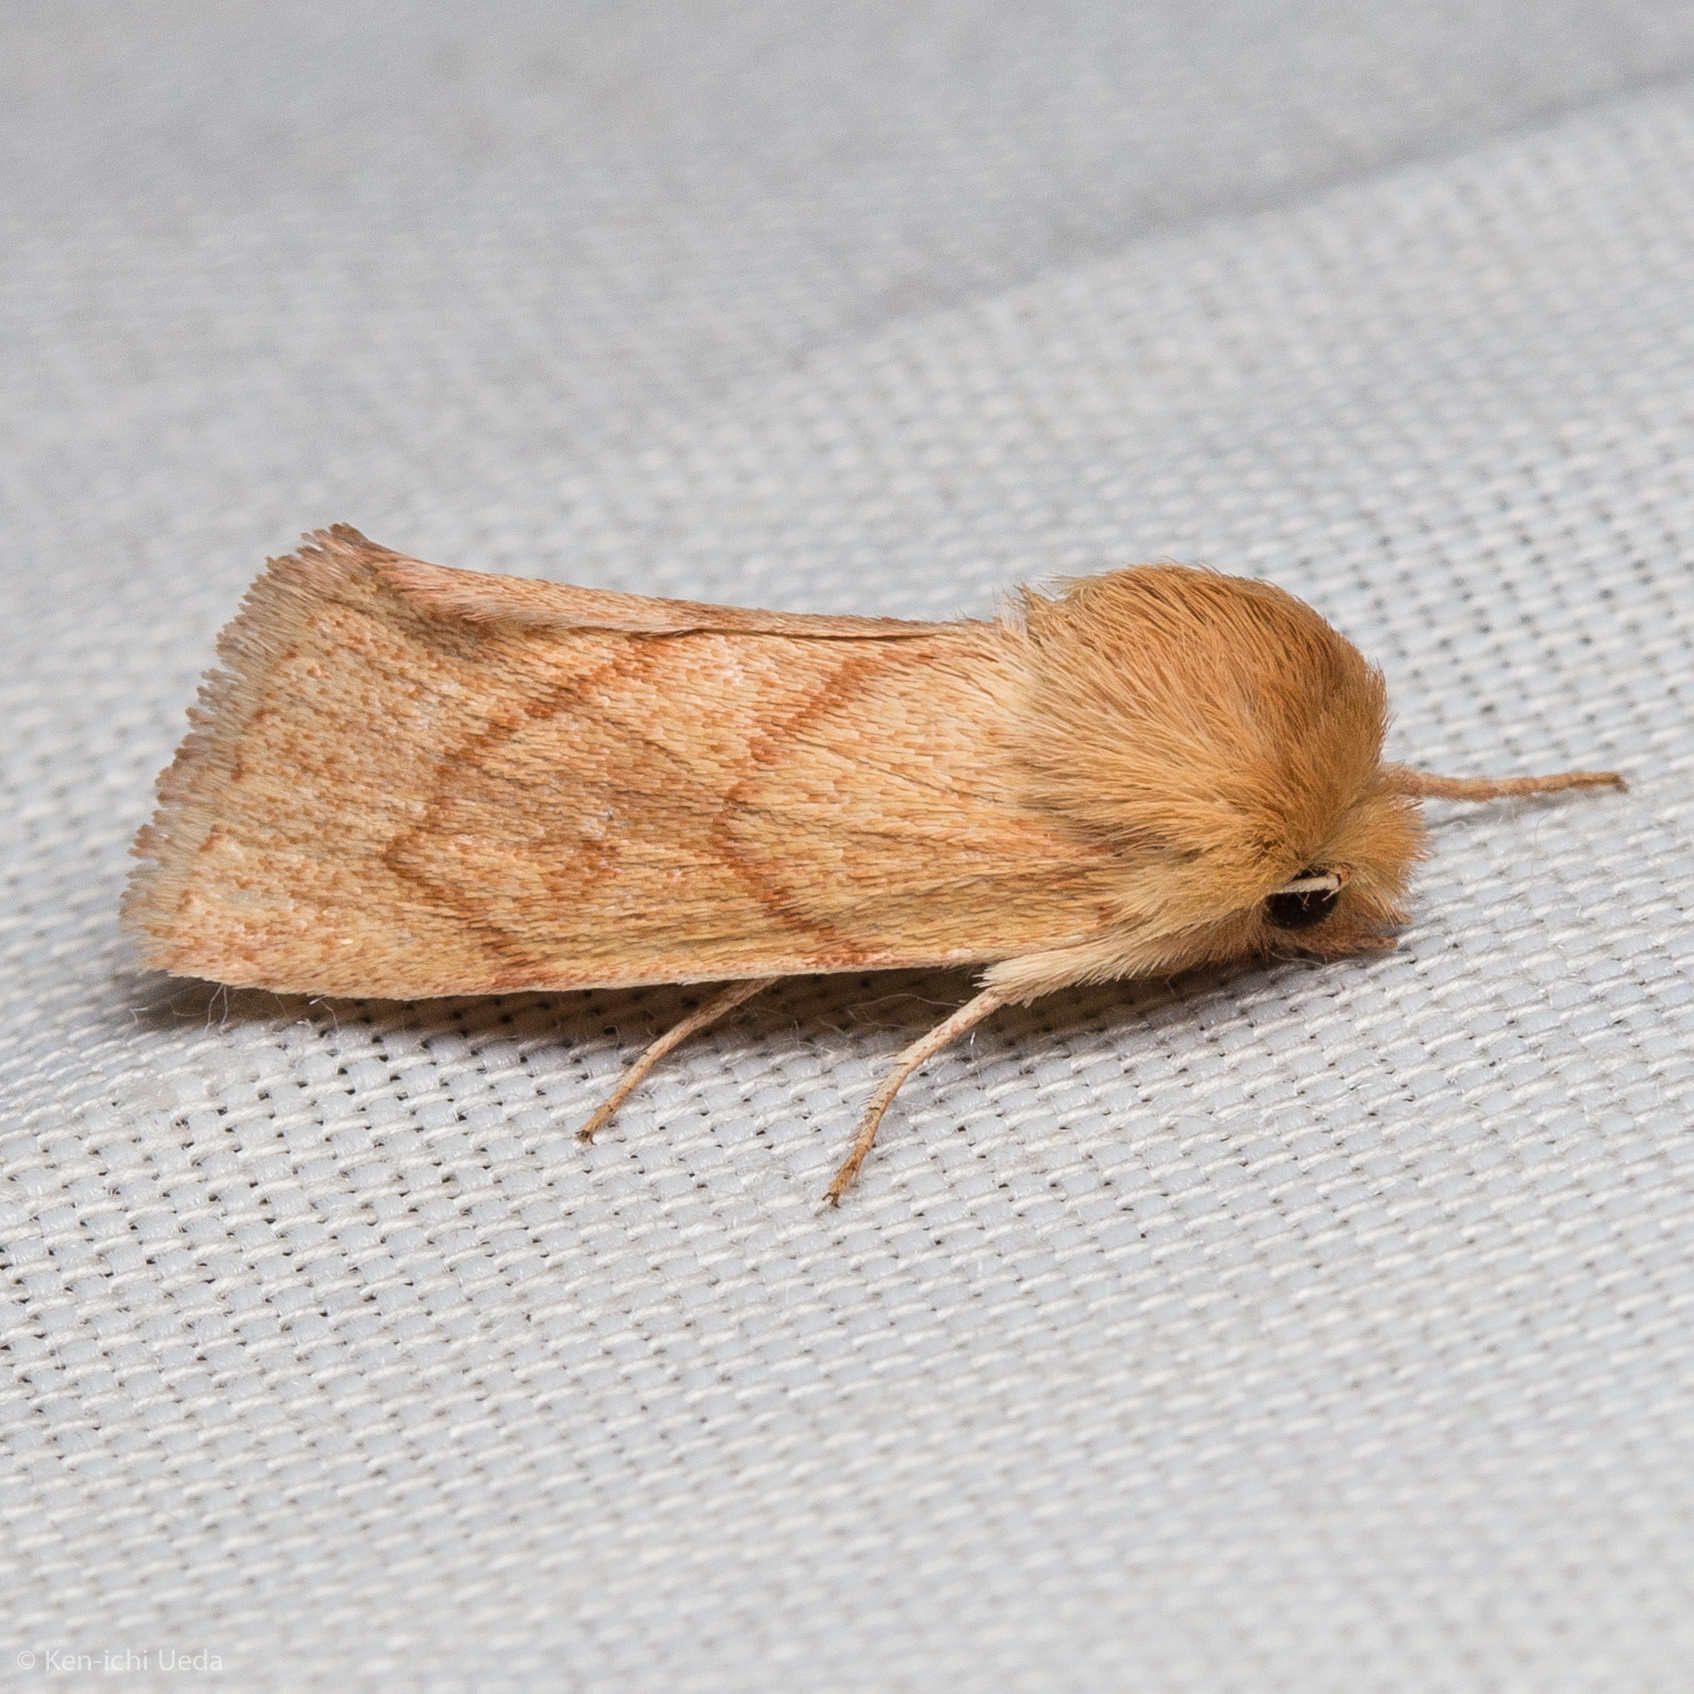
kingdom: Animalia
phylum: Arthropoda
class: Insecta
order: Lepidoptera
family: Noctuidae
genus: Zosteropoda
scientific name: Zosteropoda hirtipes
